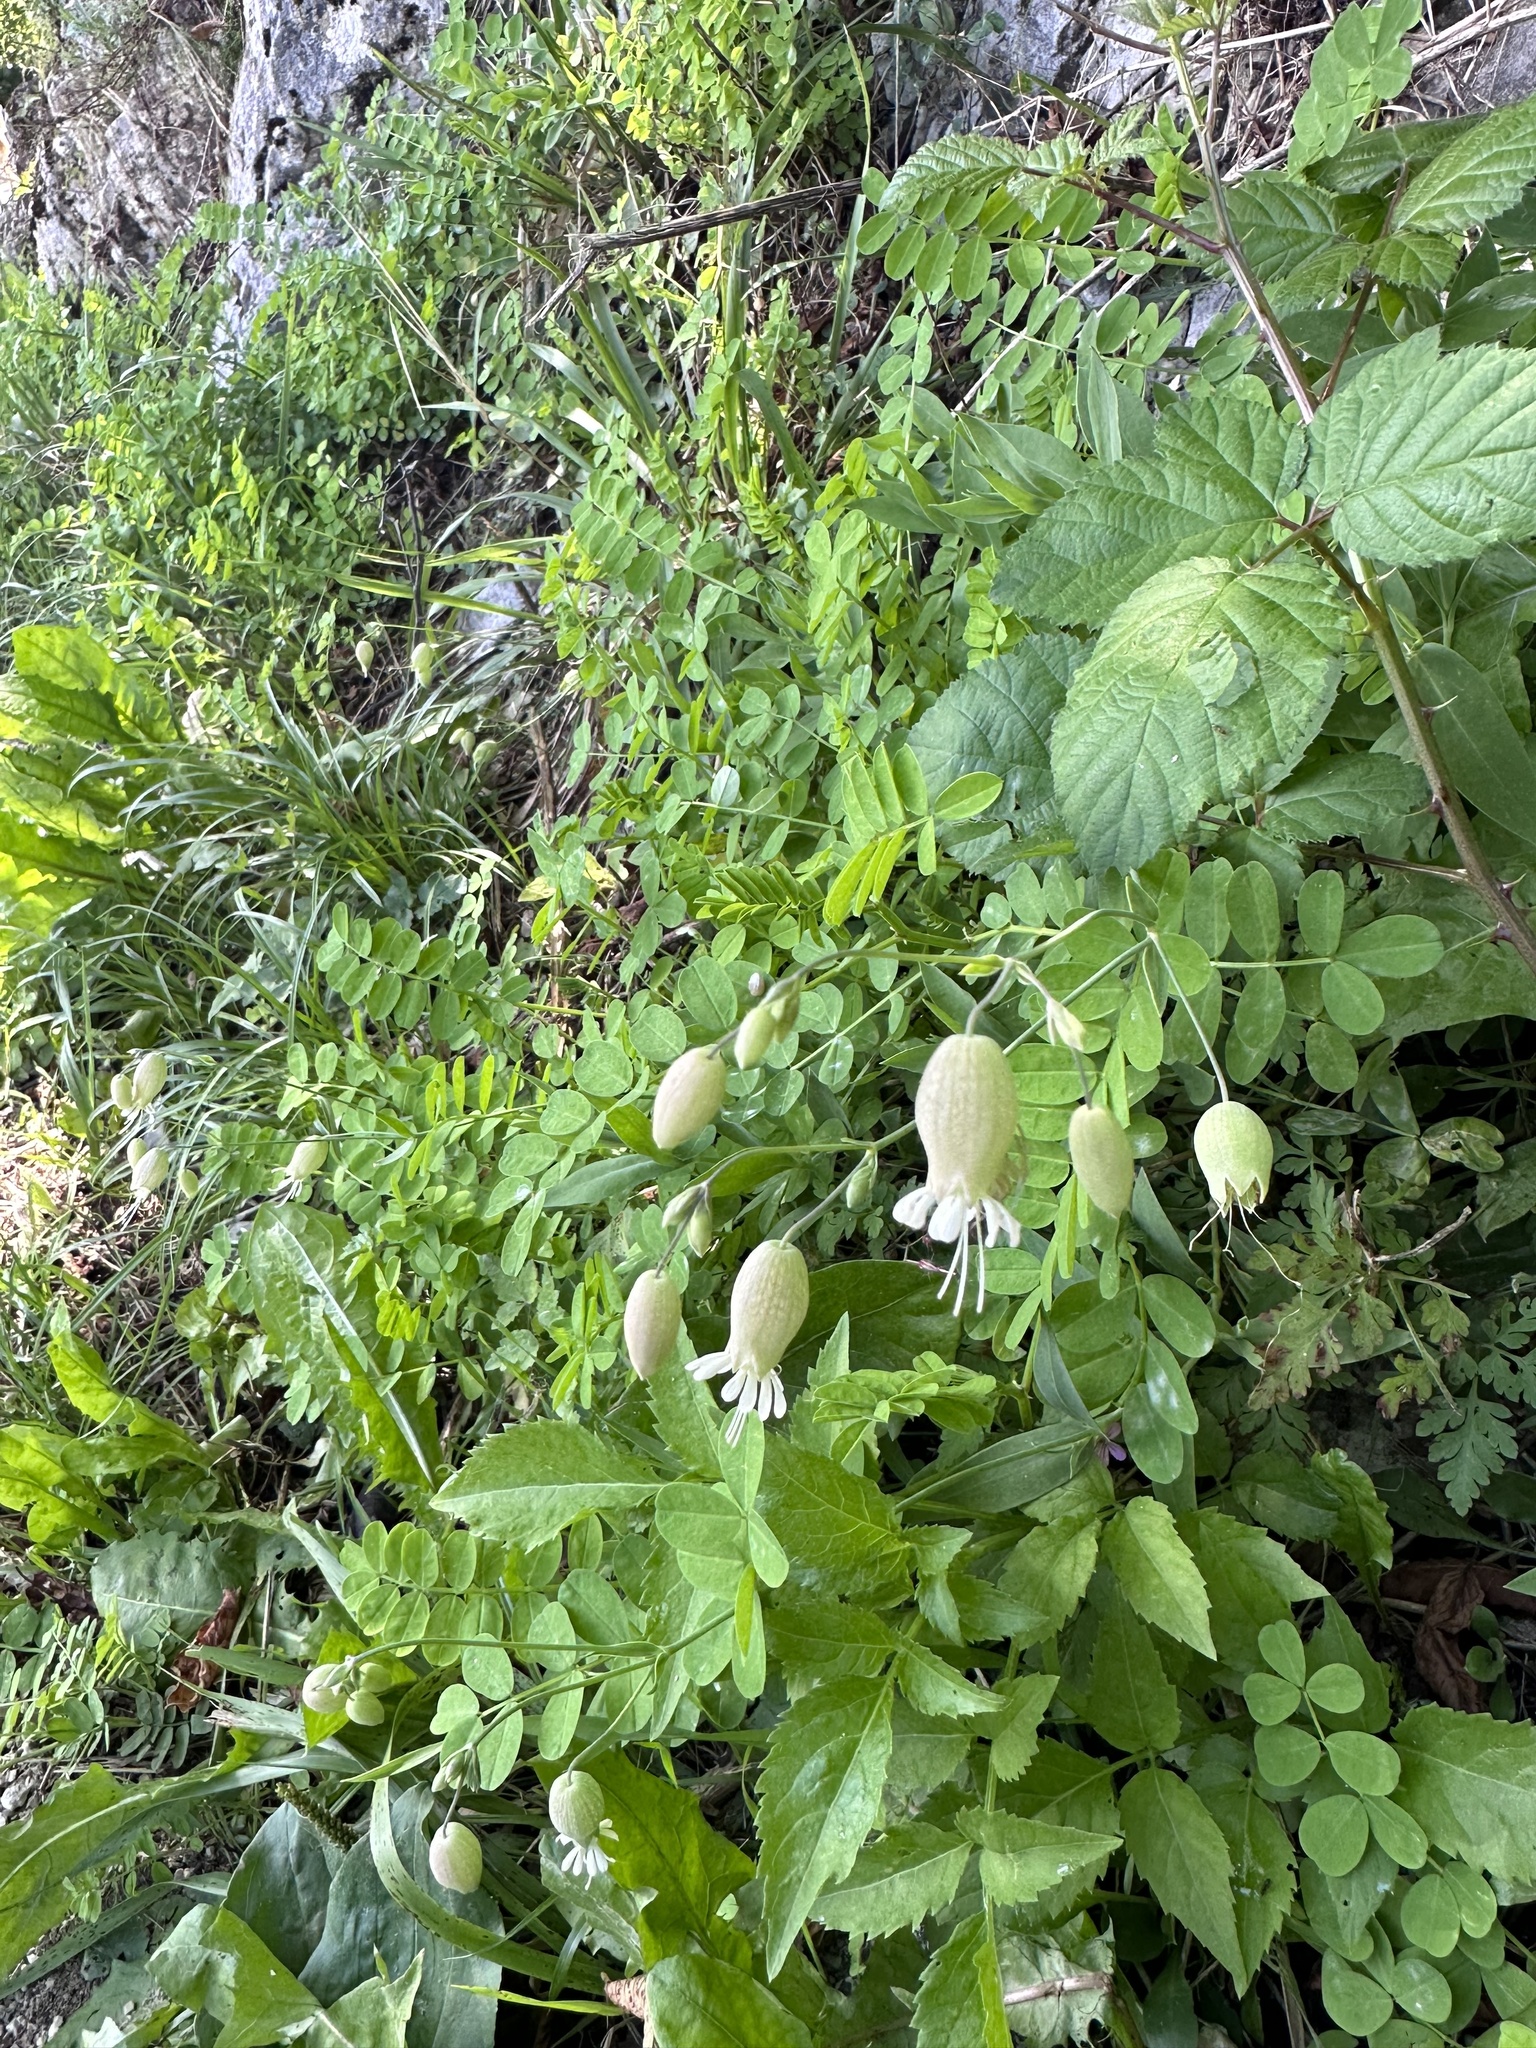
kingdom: Plantae
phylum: Tracheophyta
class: Magnoliopsida
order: Caryophyllales
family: Caryophyllaceae
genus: Silene
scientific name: Silene vulgaris
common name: Bladder campion
